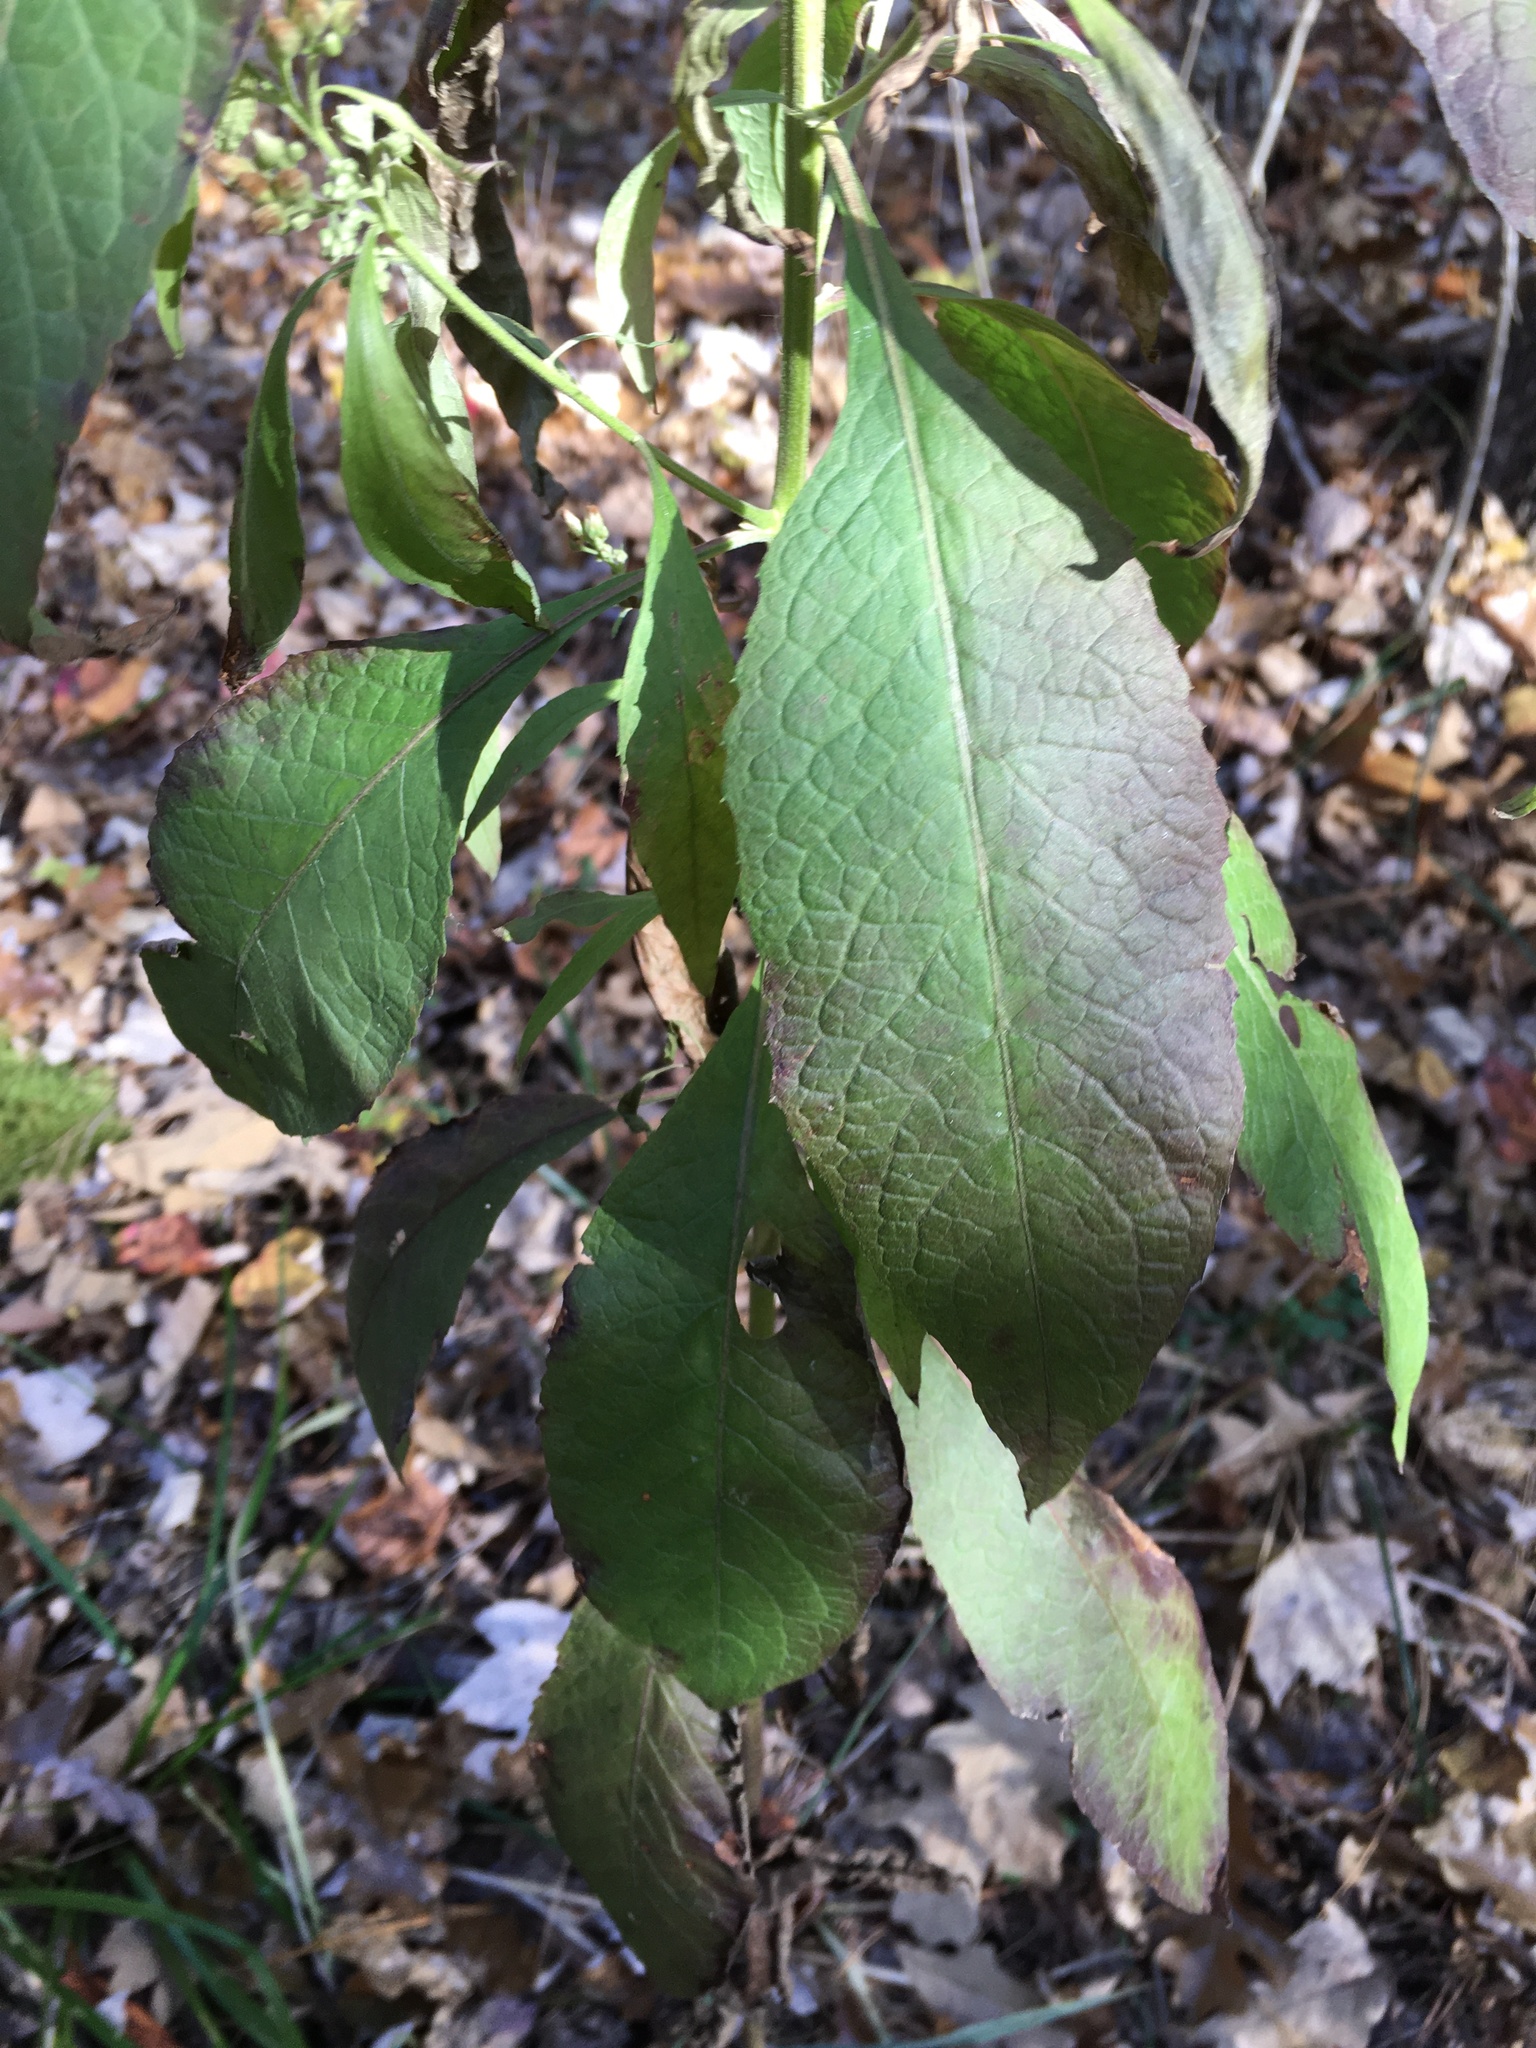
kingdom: Plantae
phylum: Tracheophyta
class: Magnoliopsida
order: Asterales
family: Asteraceae
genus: Pluchea
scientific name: Pluchea camphorata
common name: Camphor pluchea
